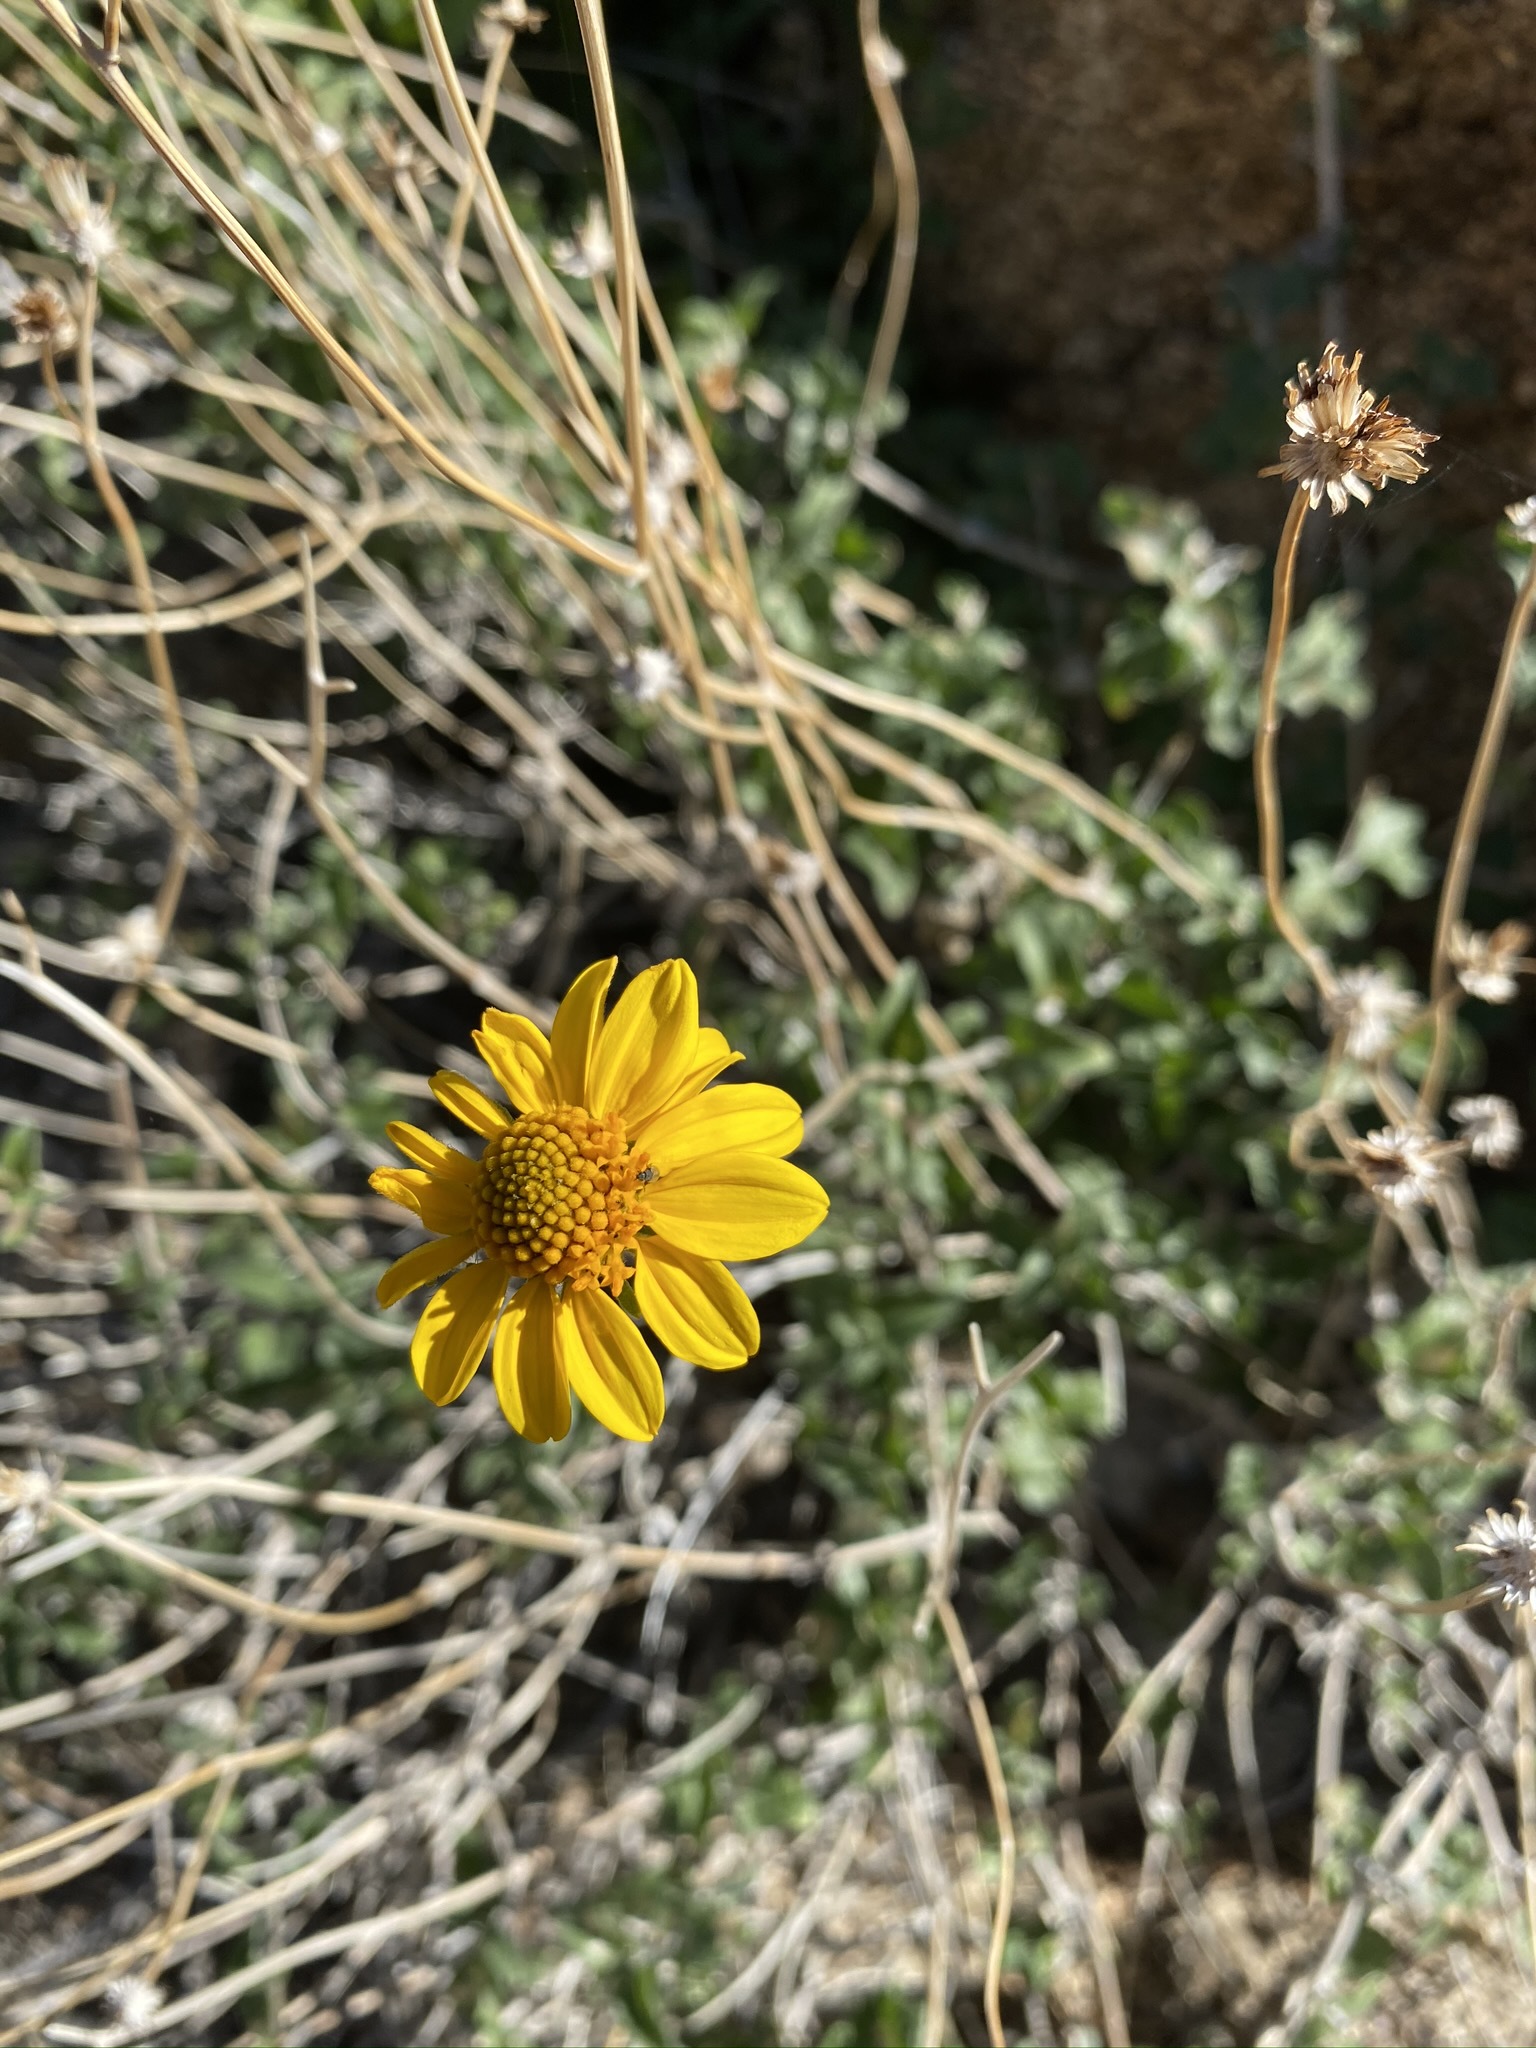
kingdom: Plantae
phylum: Tracheophyta
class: Magnoliopsida
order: Asterales
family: Asteraceae
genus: Bahiopsis
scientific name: Bahiopsis parishii
